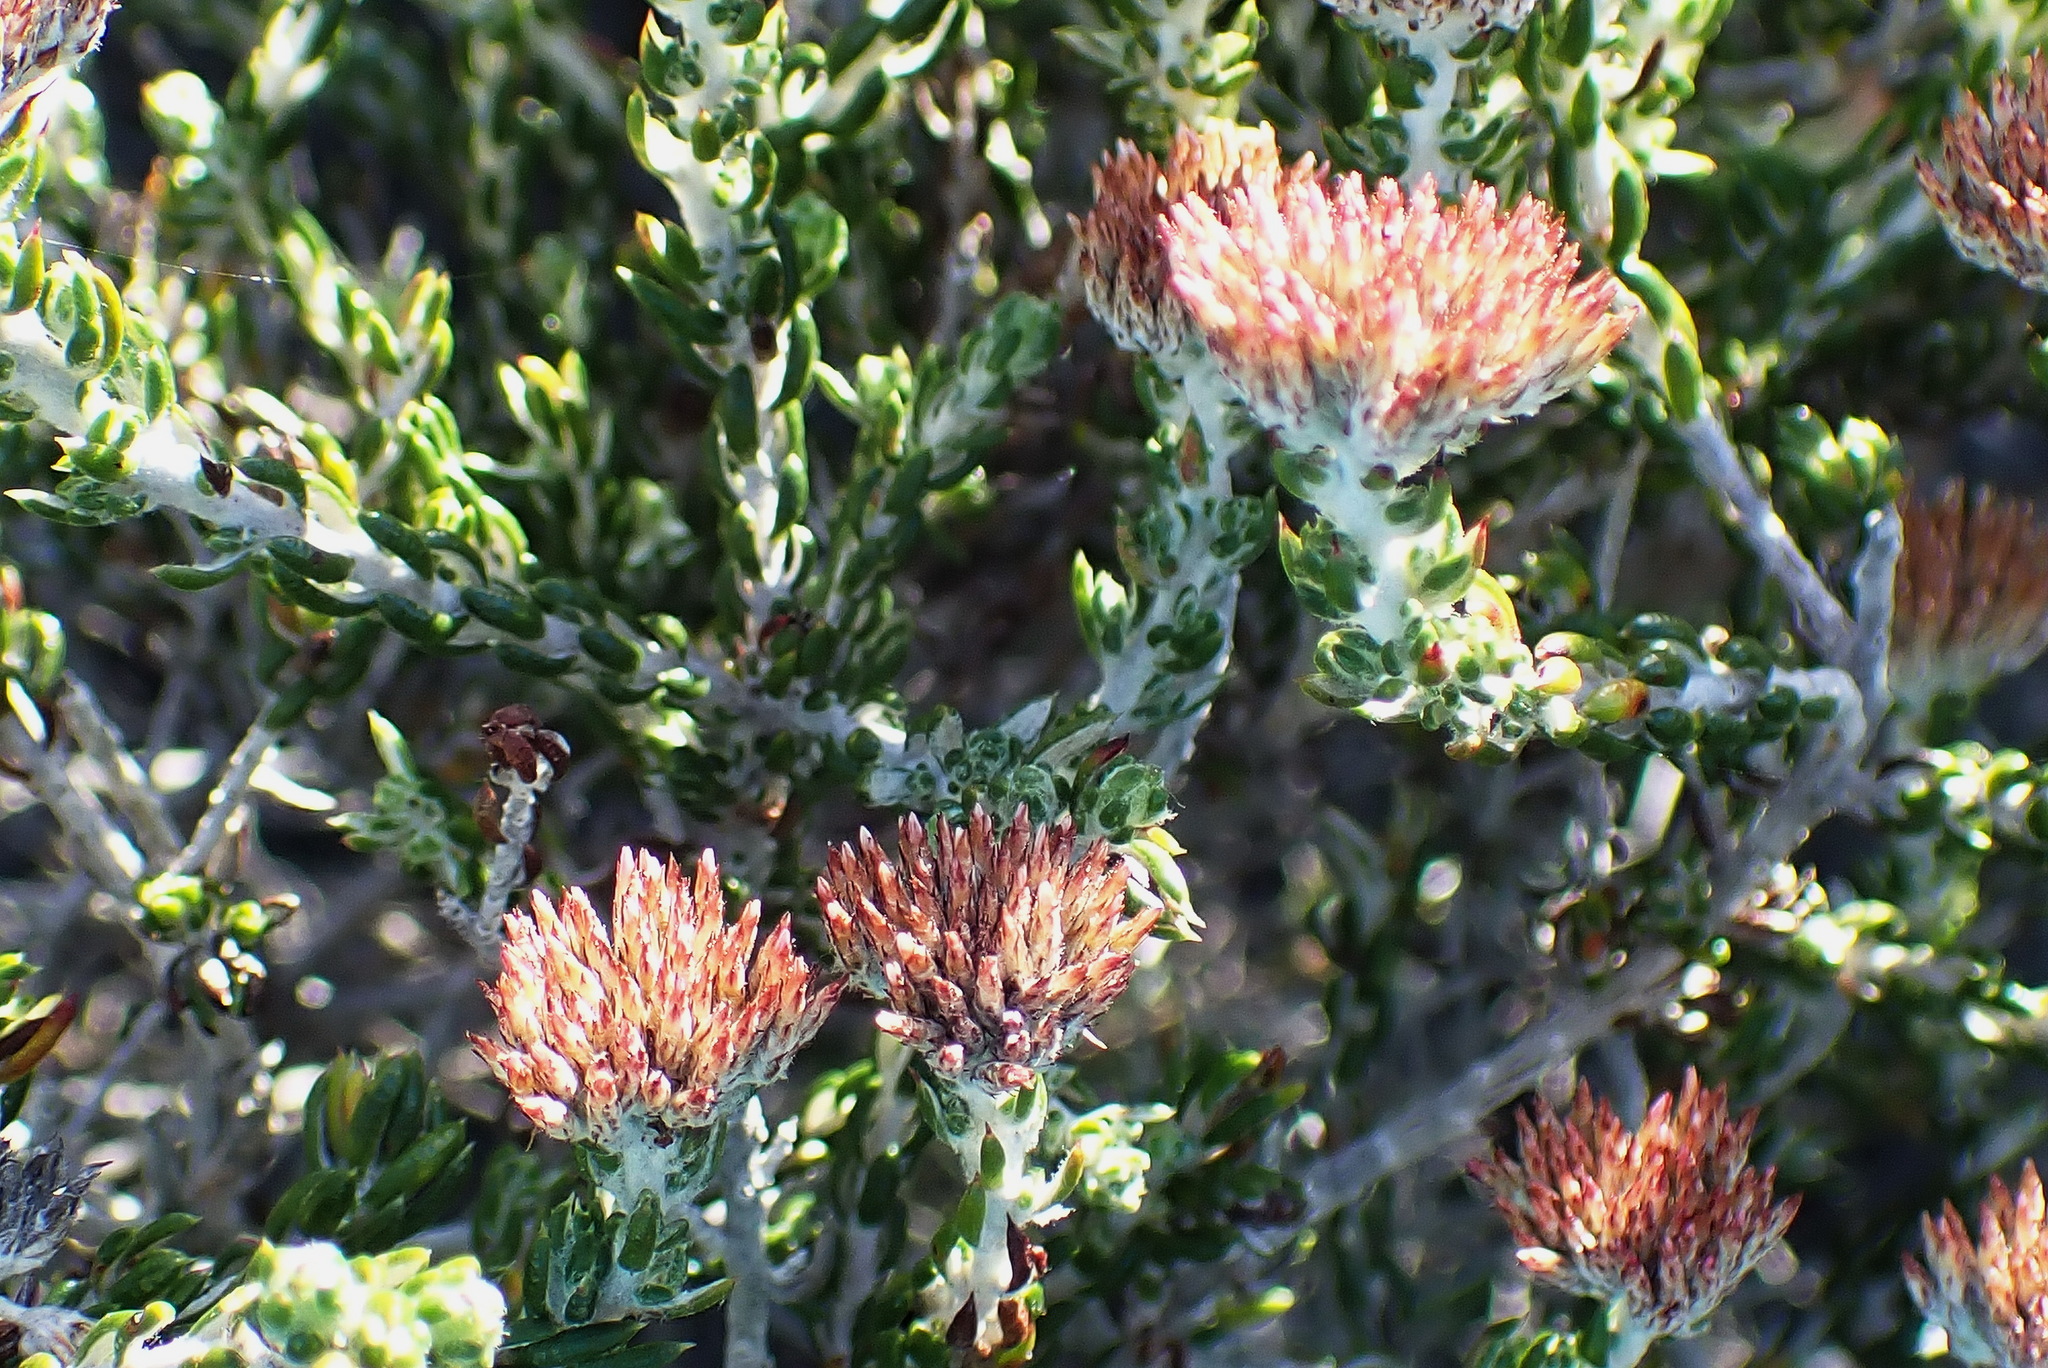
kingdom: Plantae
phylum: Tracheophyta
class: Magnoliopsida
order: Asterales
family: Asteraceae
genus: Metalasia
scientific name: Metalasia pungens
